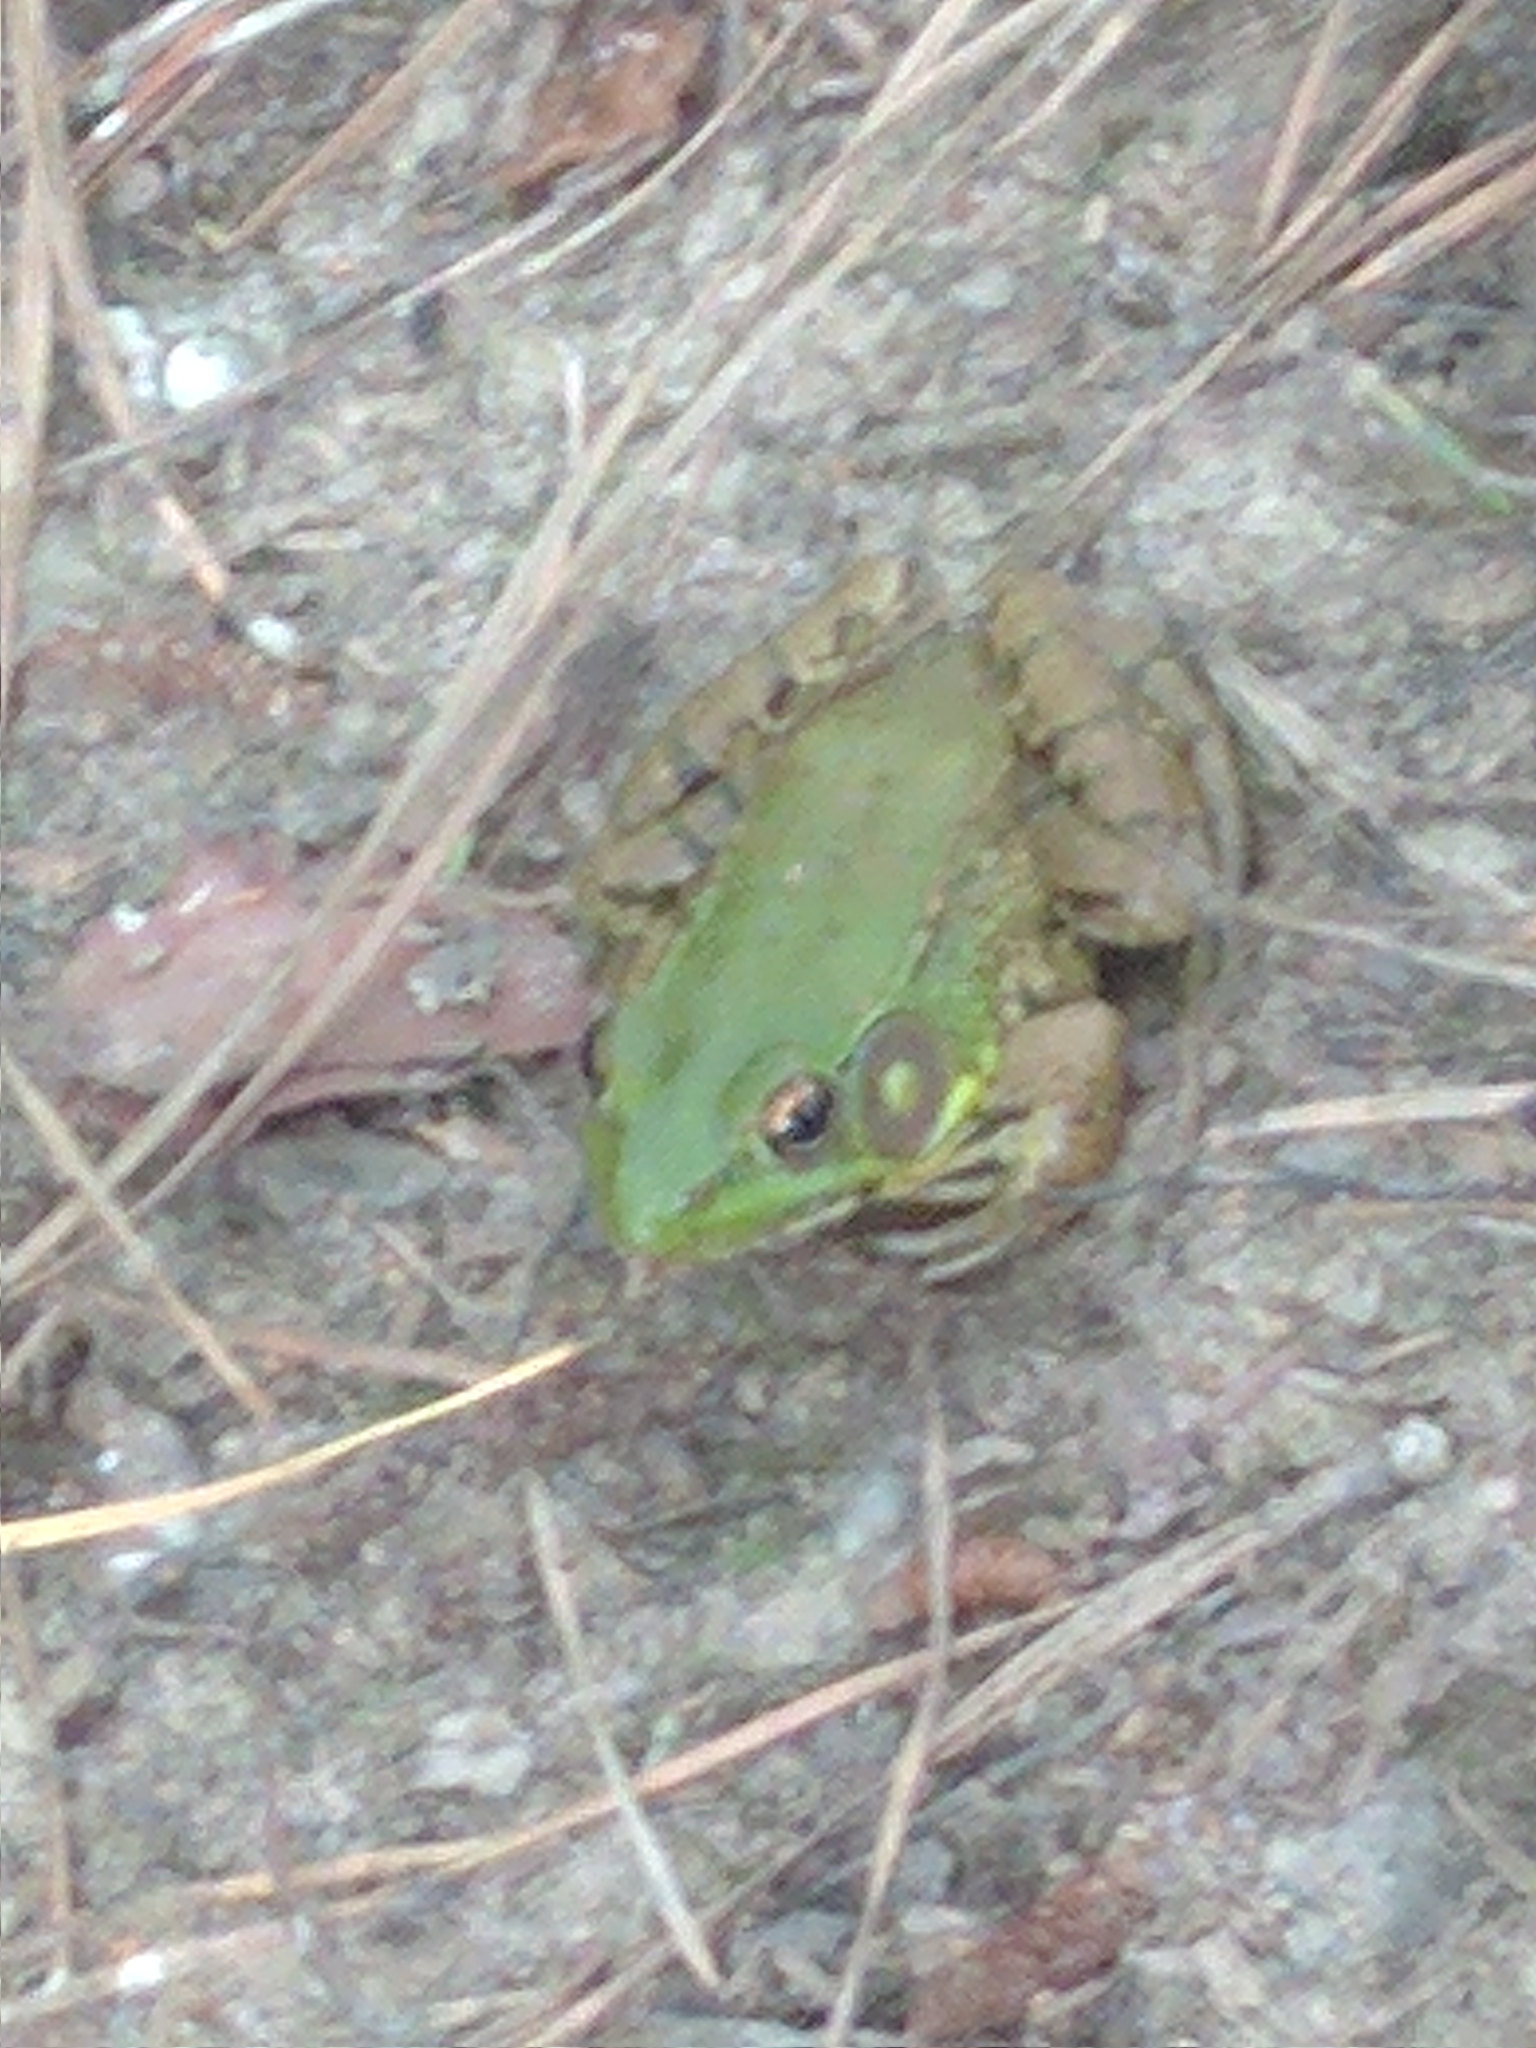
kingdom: Animalia
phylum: Chordata
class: Amphibia
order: Anura
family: Ranidae
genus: Lithobates
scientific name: Lithobates clamitans
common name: Green frog
